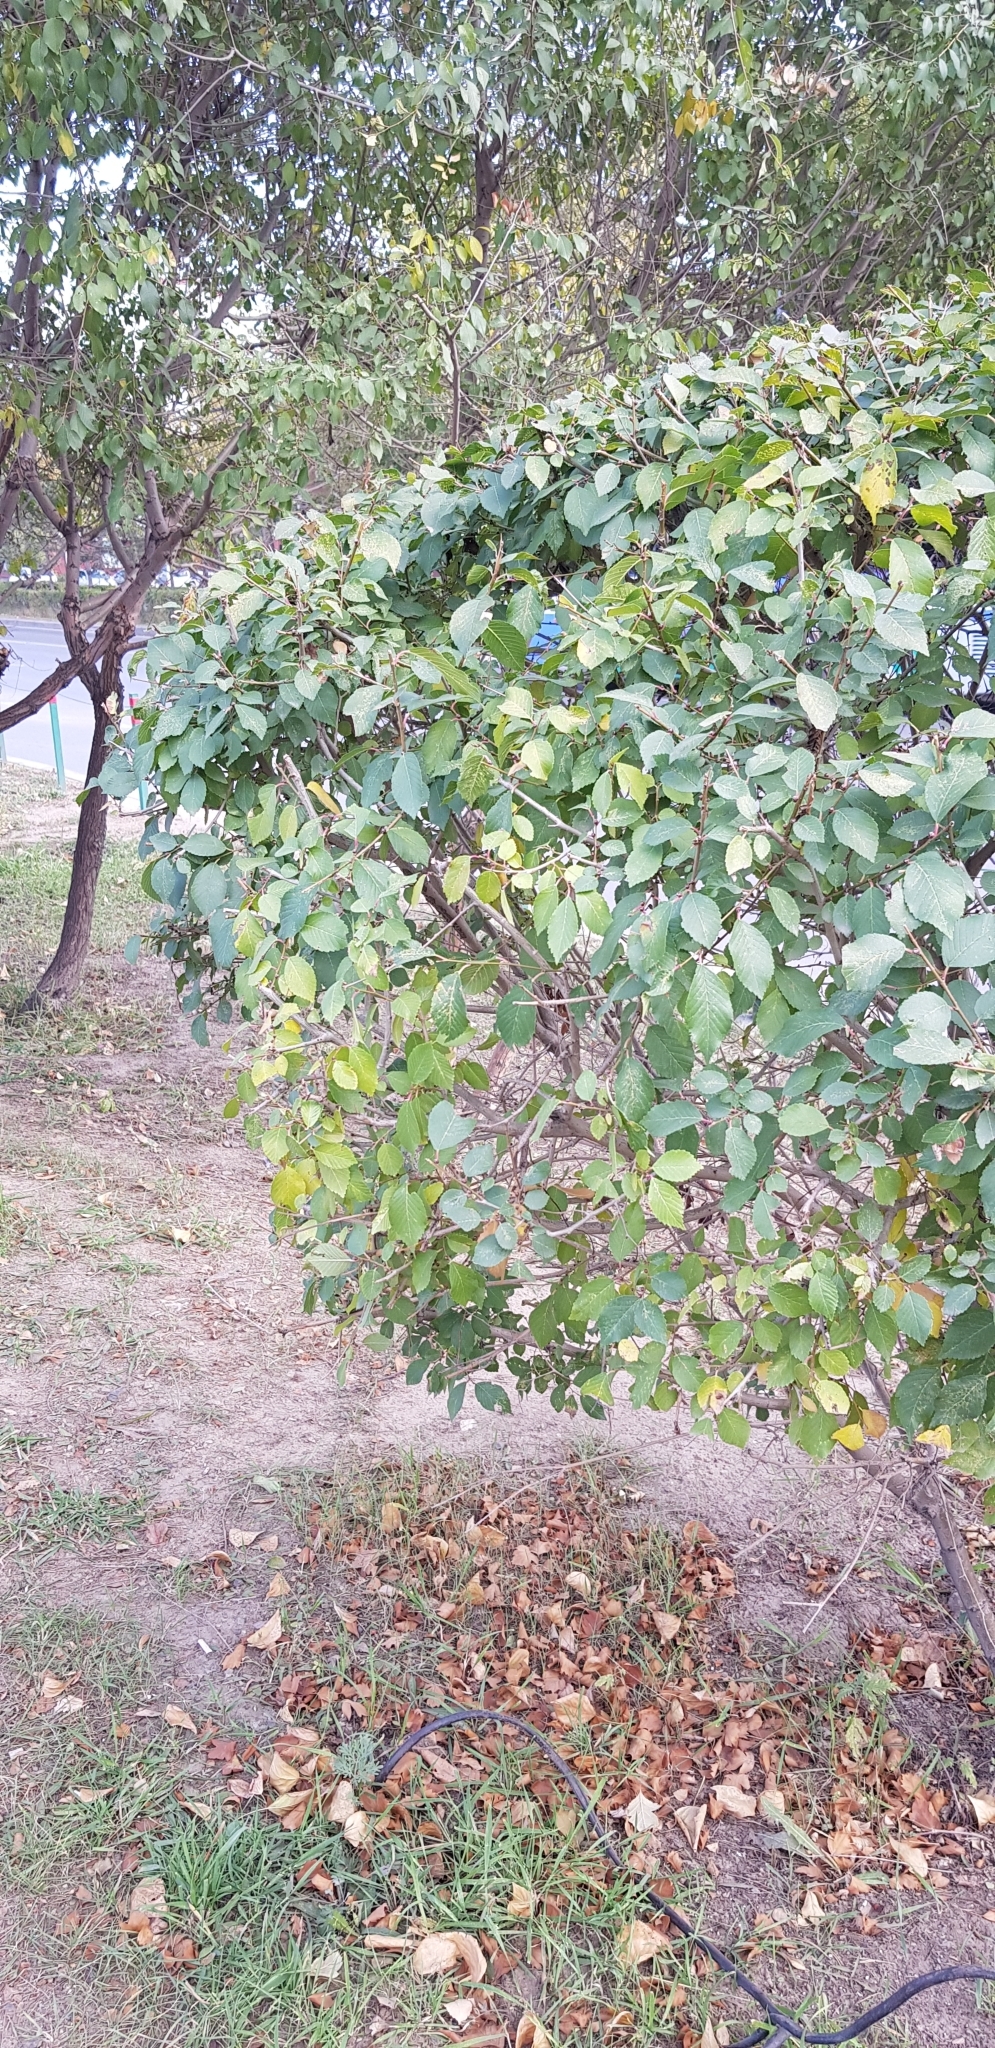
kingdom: Plantae
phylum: Tracheophyta
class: Magnoliopsida
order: Rosales
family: Ulmaceae
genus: Ulmus
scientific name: Ulmus pumila
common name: Siberian elm
